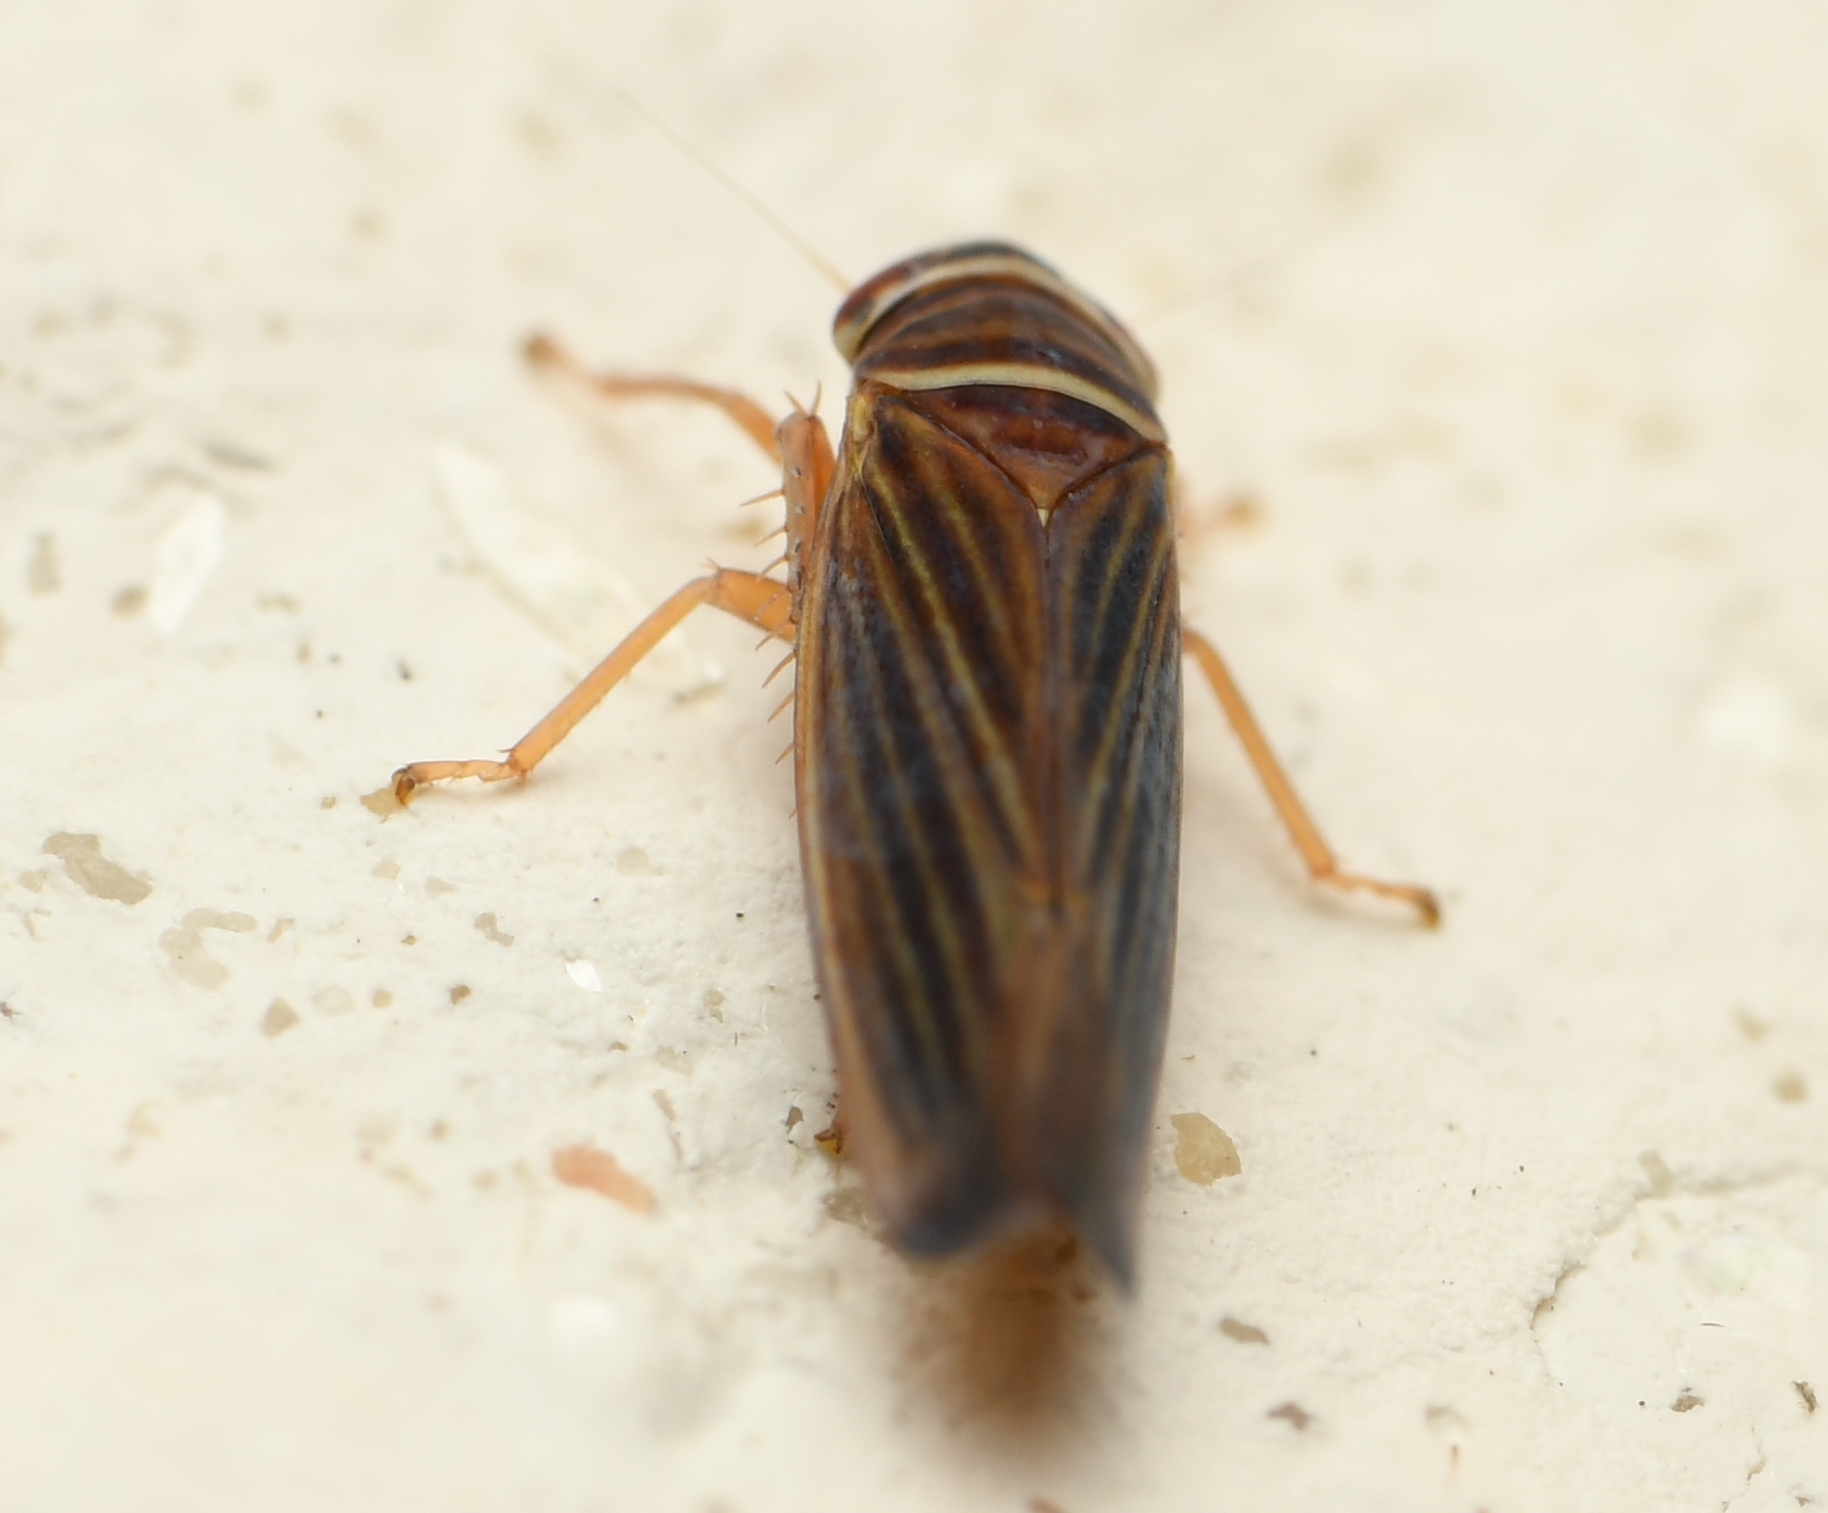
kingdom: Animalia
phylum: Arthropoda
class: Insecta
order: Hemiptera
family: Cicadellidae
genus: Tylozygus
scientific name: Tylozygus bifidus
